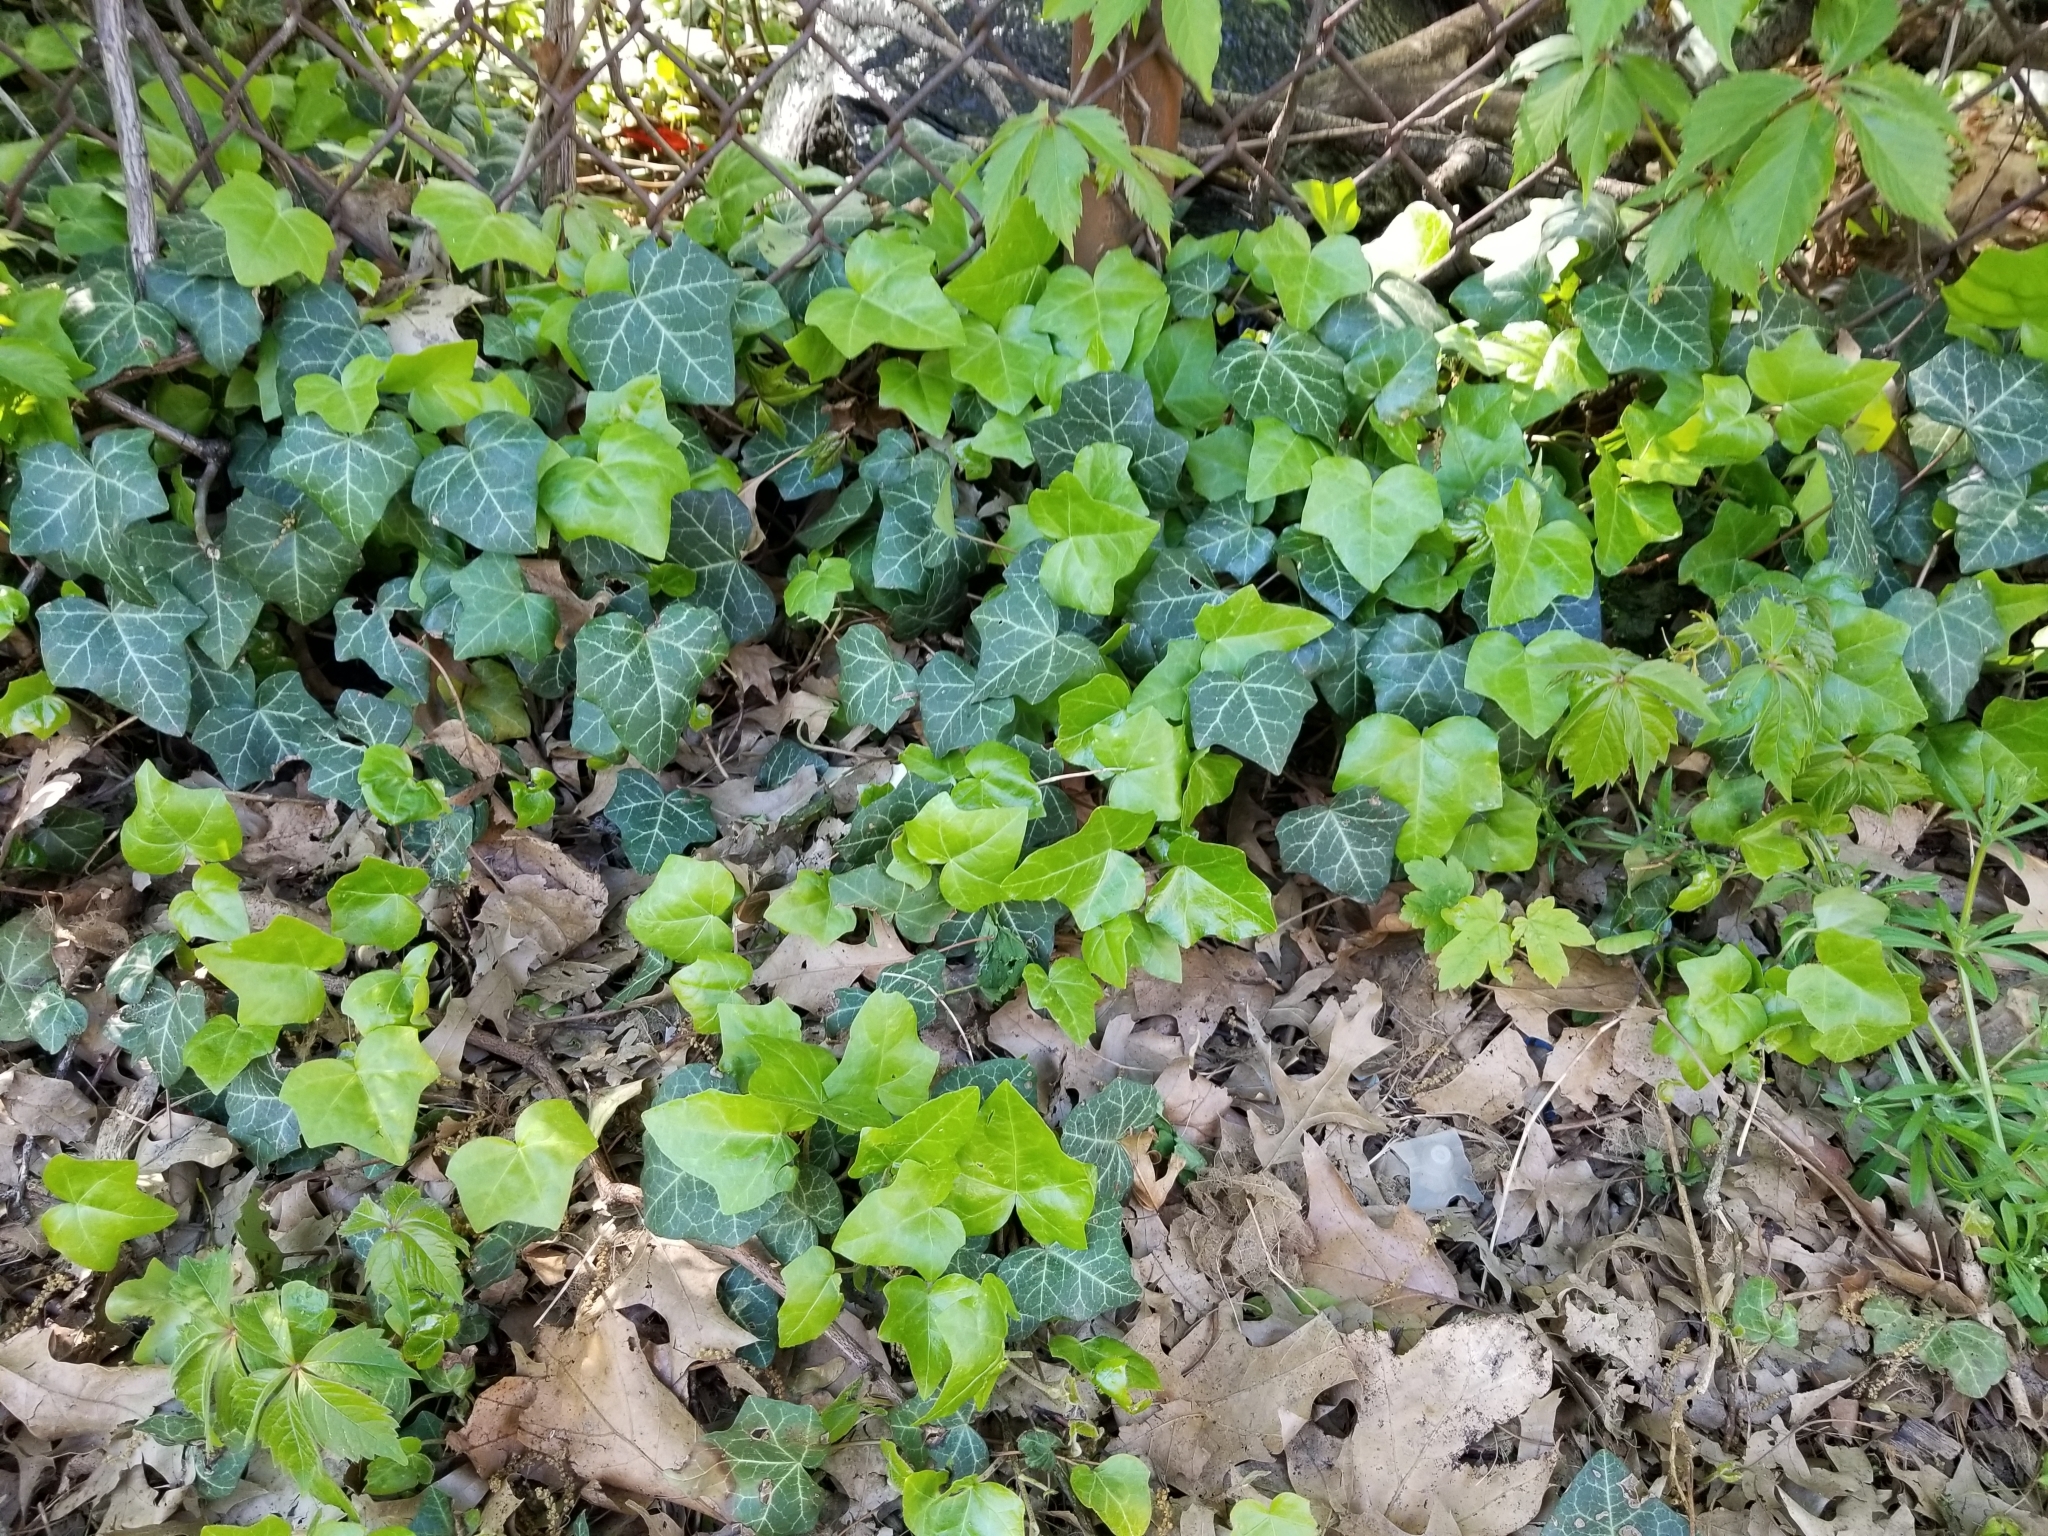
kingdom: Plantae
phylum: Tracheophyta
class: Magnoliopsida
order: Apiales
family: Araliaceae
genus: Hedera
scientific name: Hedera helix
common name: Ivy
